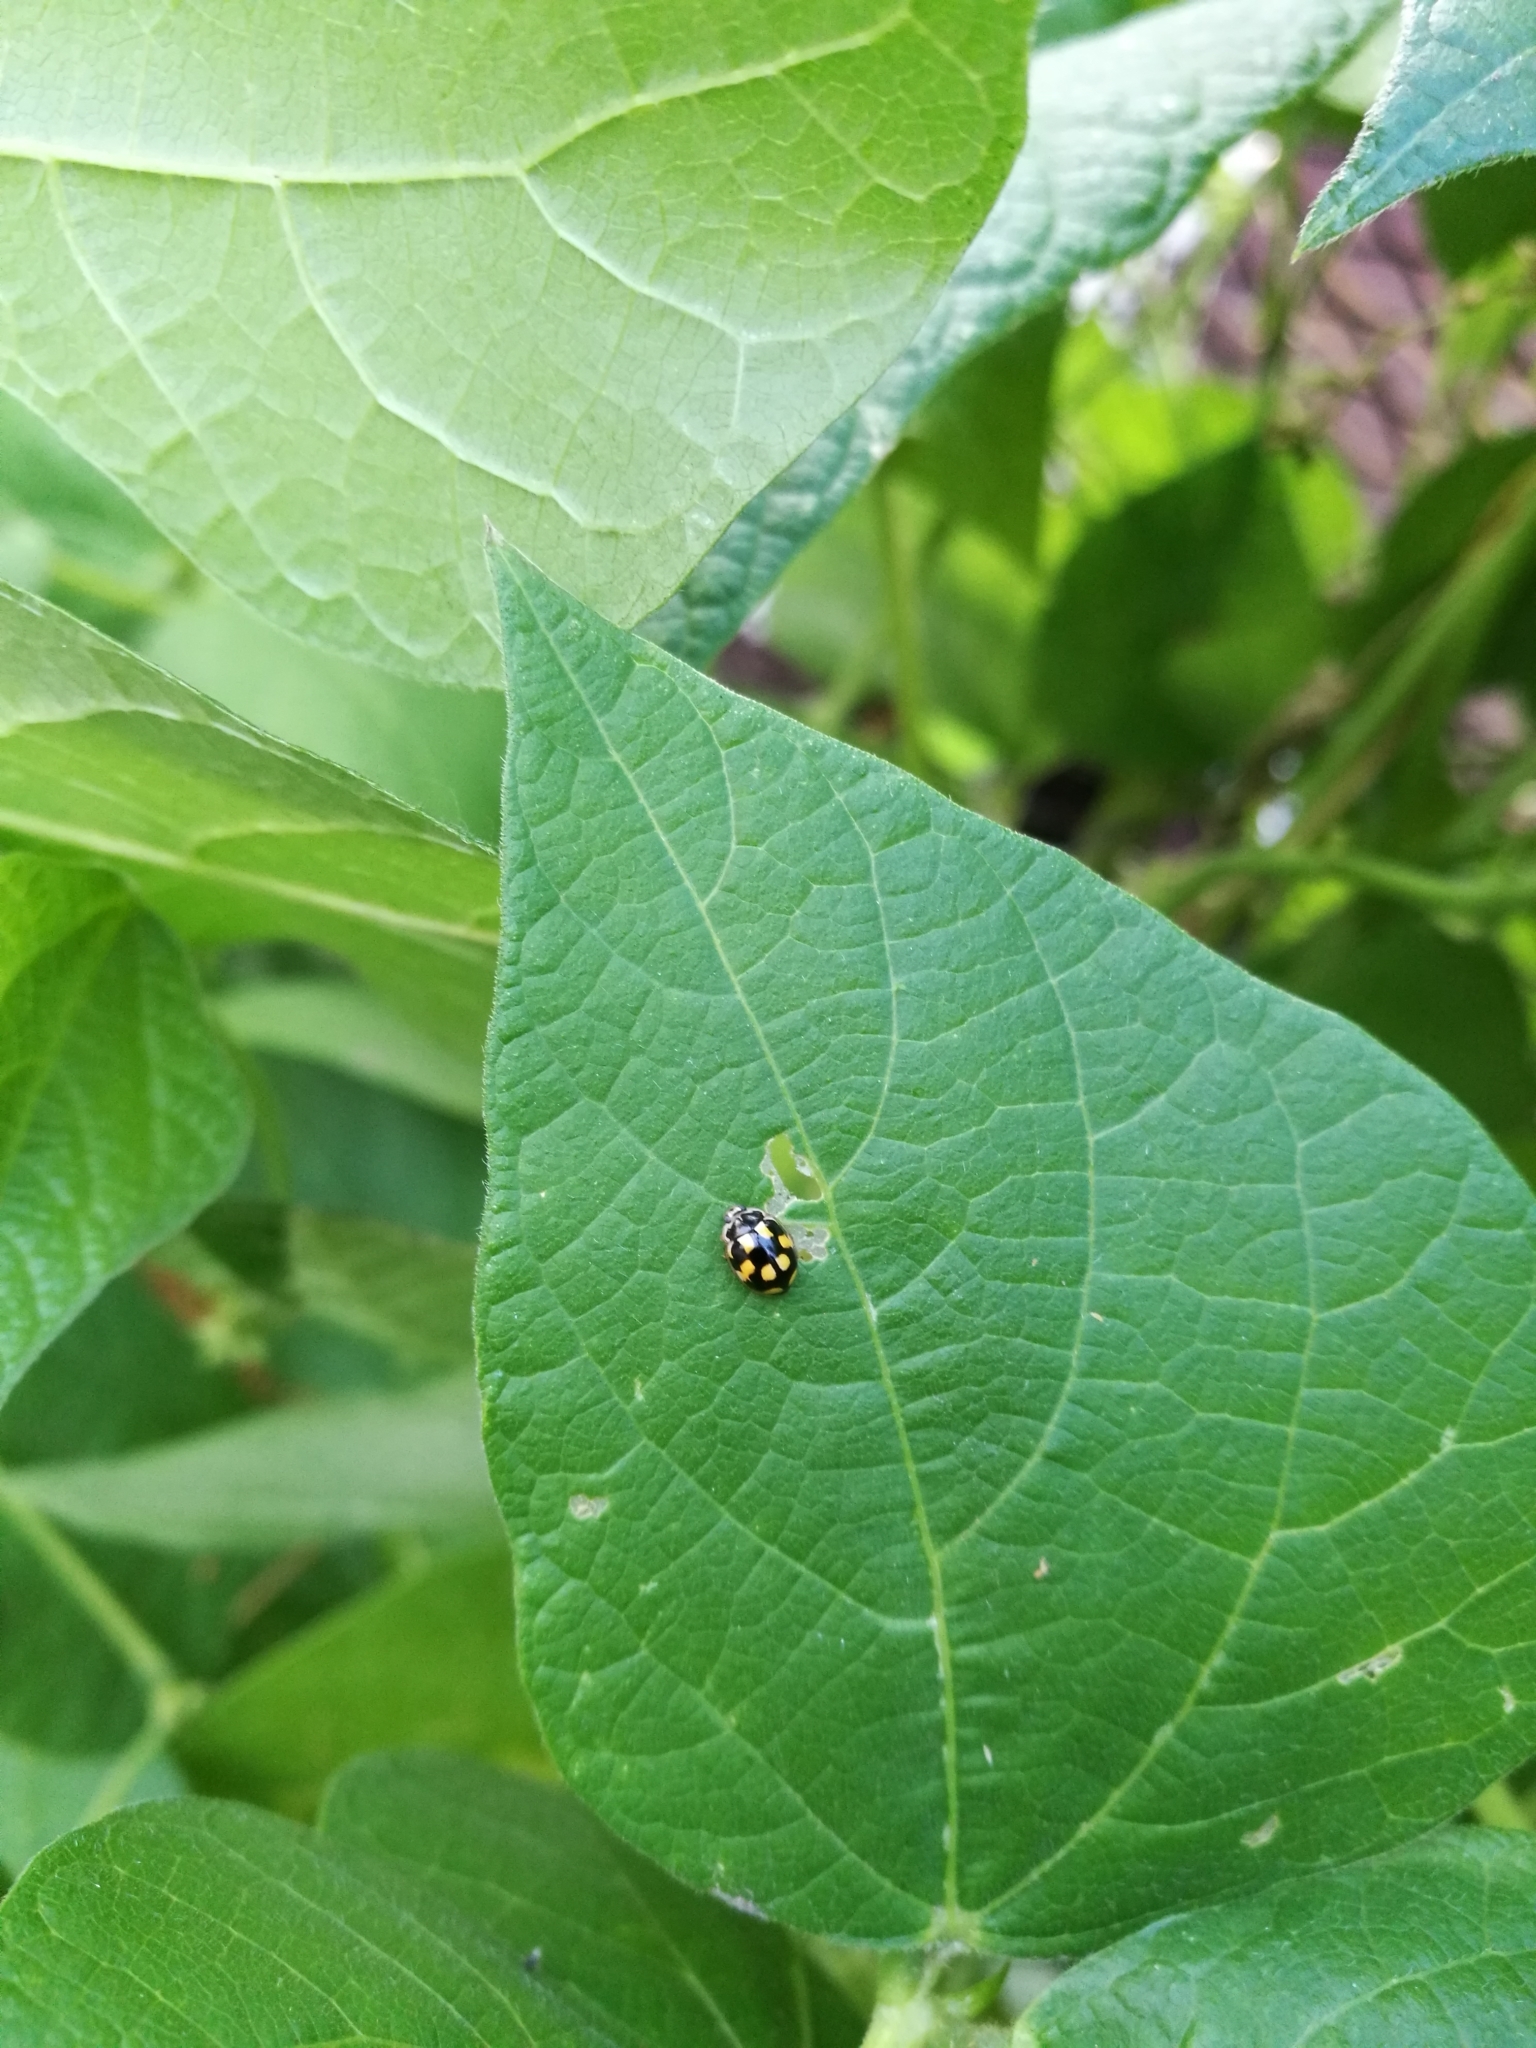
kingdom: Animalia
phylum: Arthropoda
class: Insecta
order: Coleoptera
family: Coccinellidae
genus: Propylaea
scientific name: Propylaea quatuordecimpunctata
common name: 14-spotted ladybird beetle
